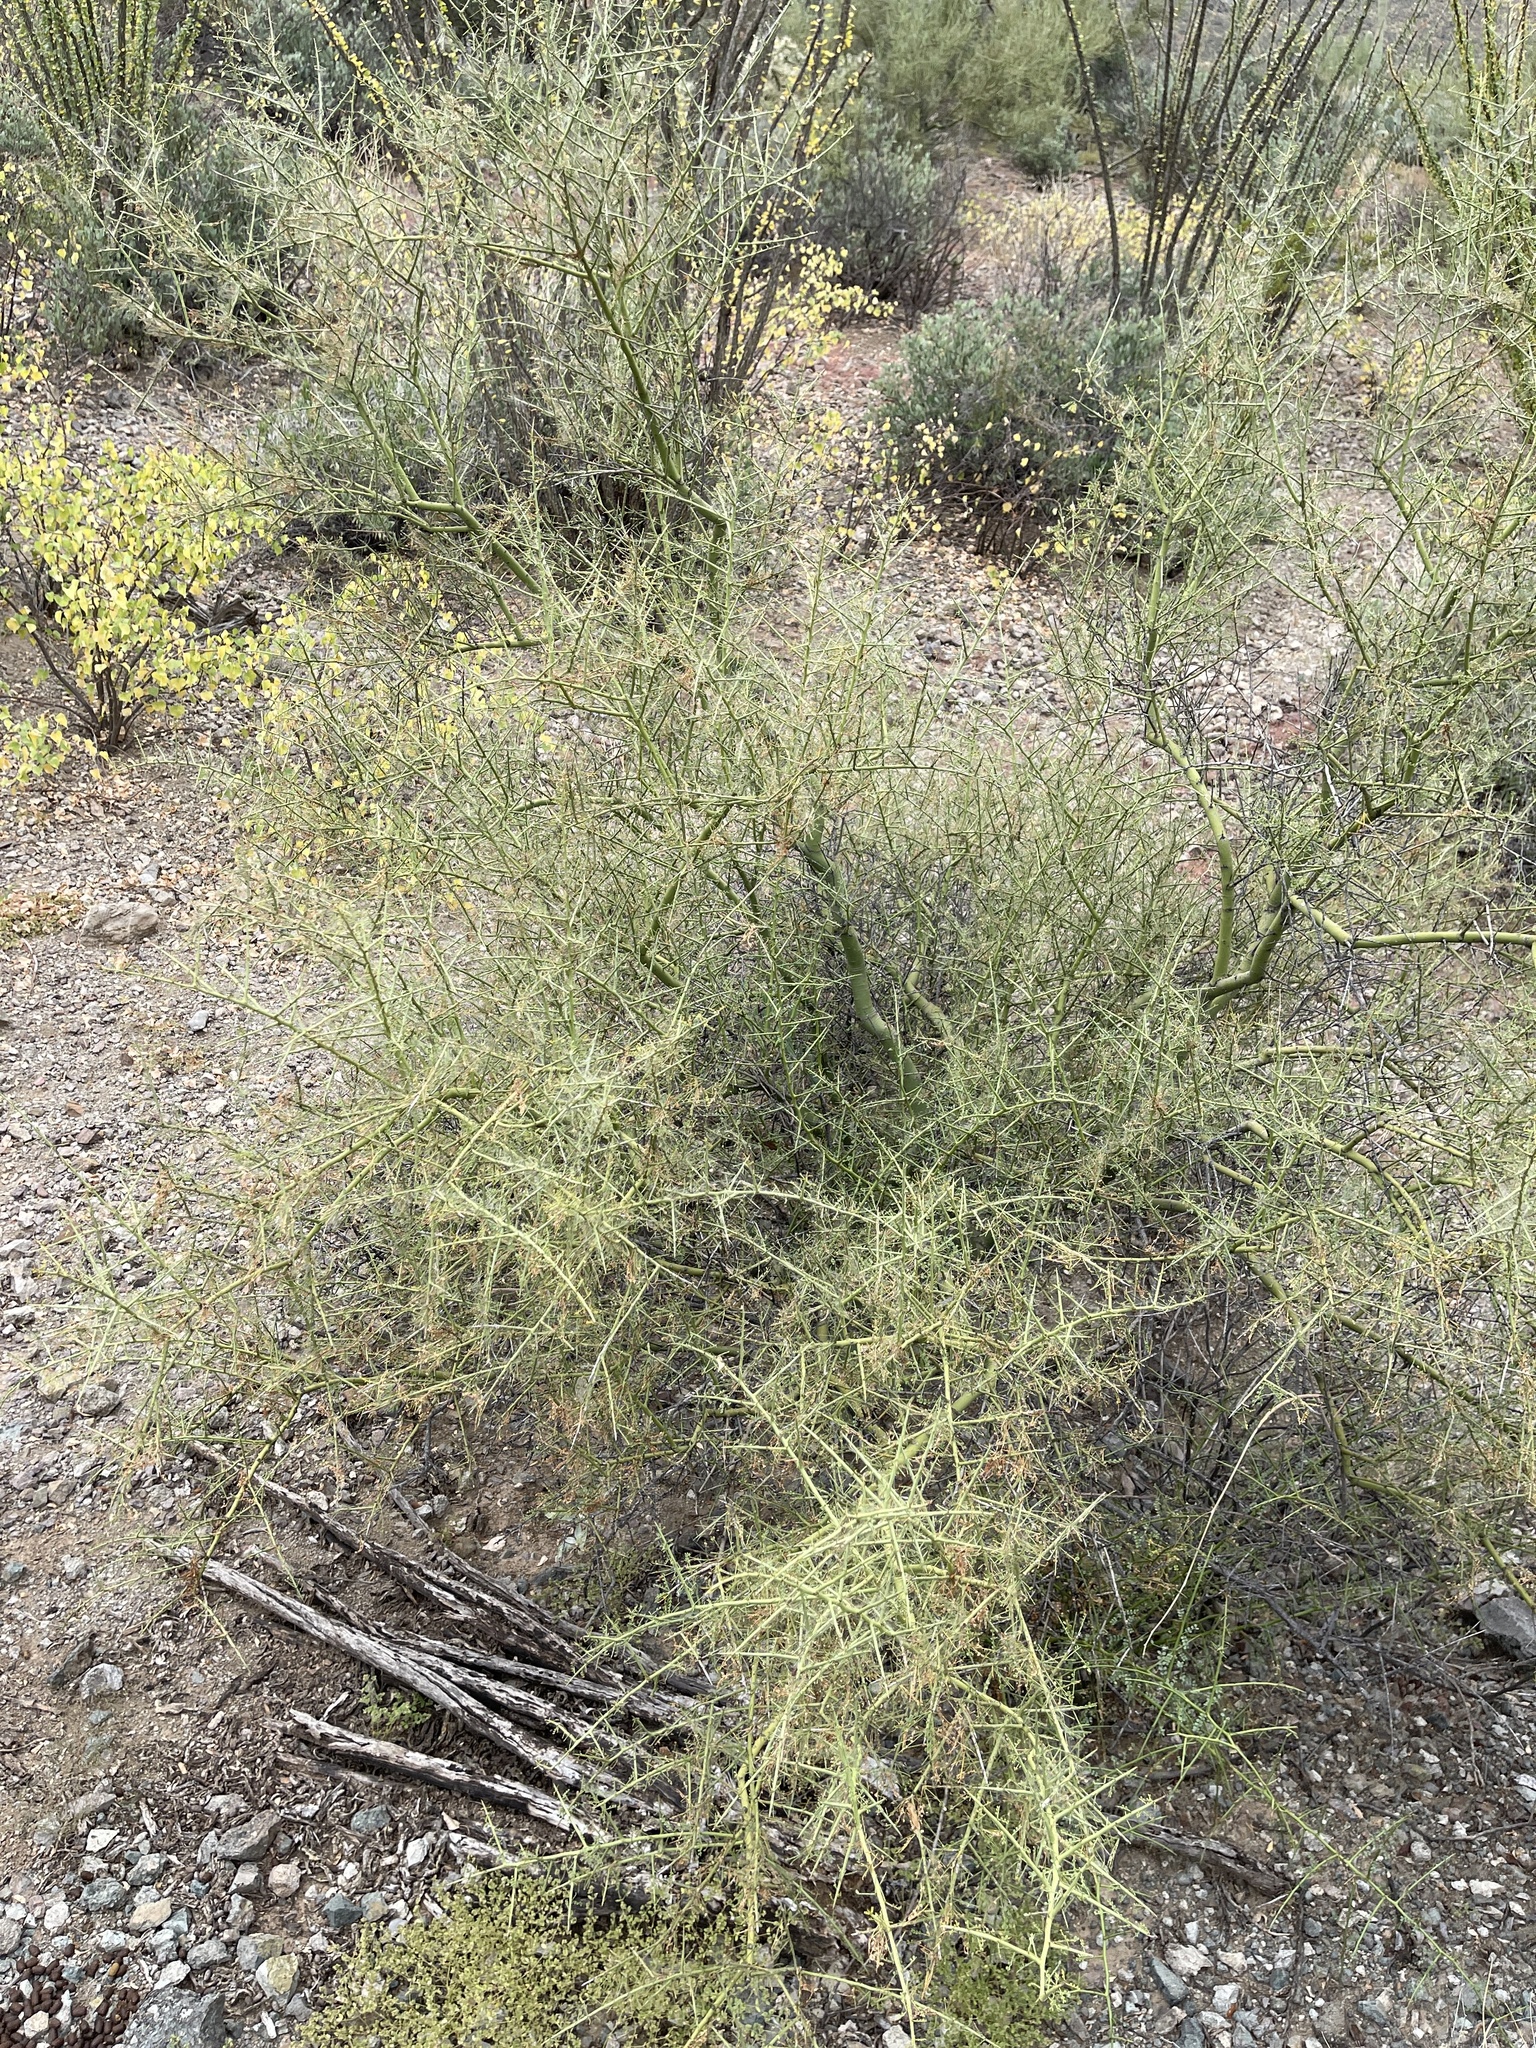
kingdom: Plantae
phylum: Tracheophyta
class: Magnoliopsida
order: Fabales
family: Fabaceae
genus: Parkinsonia
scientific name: Parkinsonia microphylla
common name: Yellow paloverde
